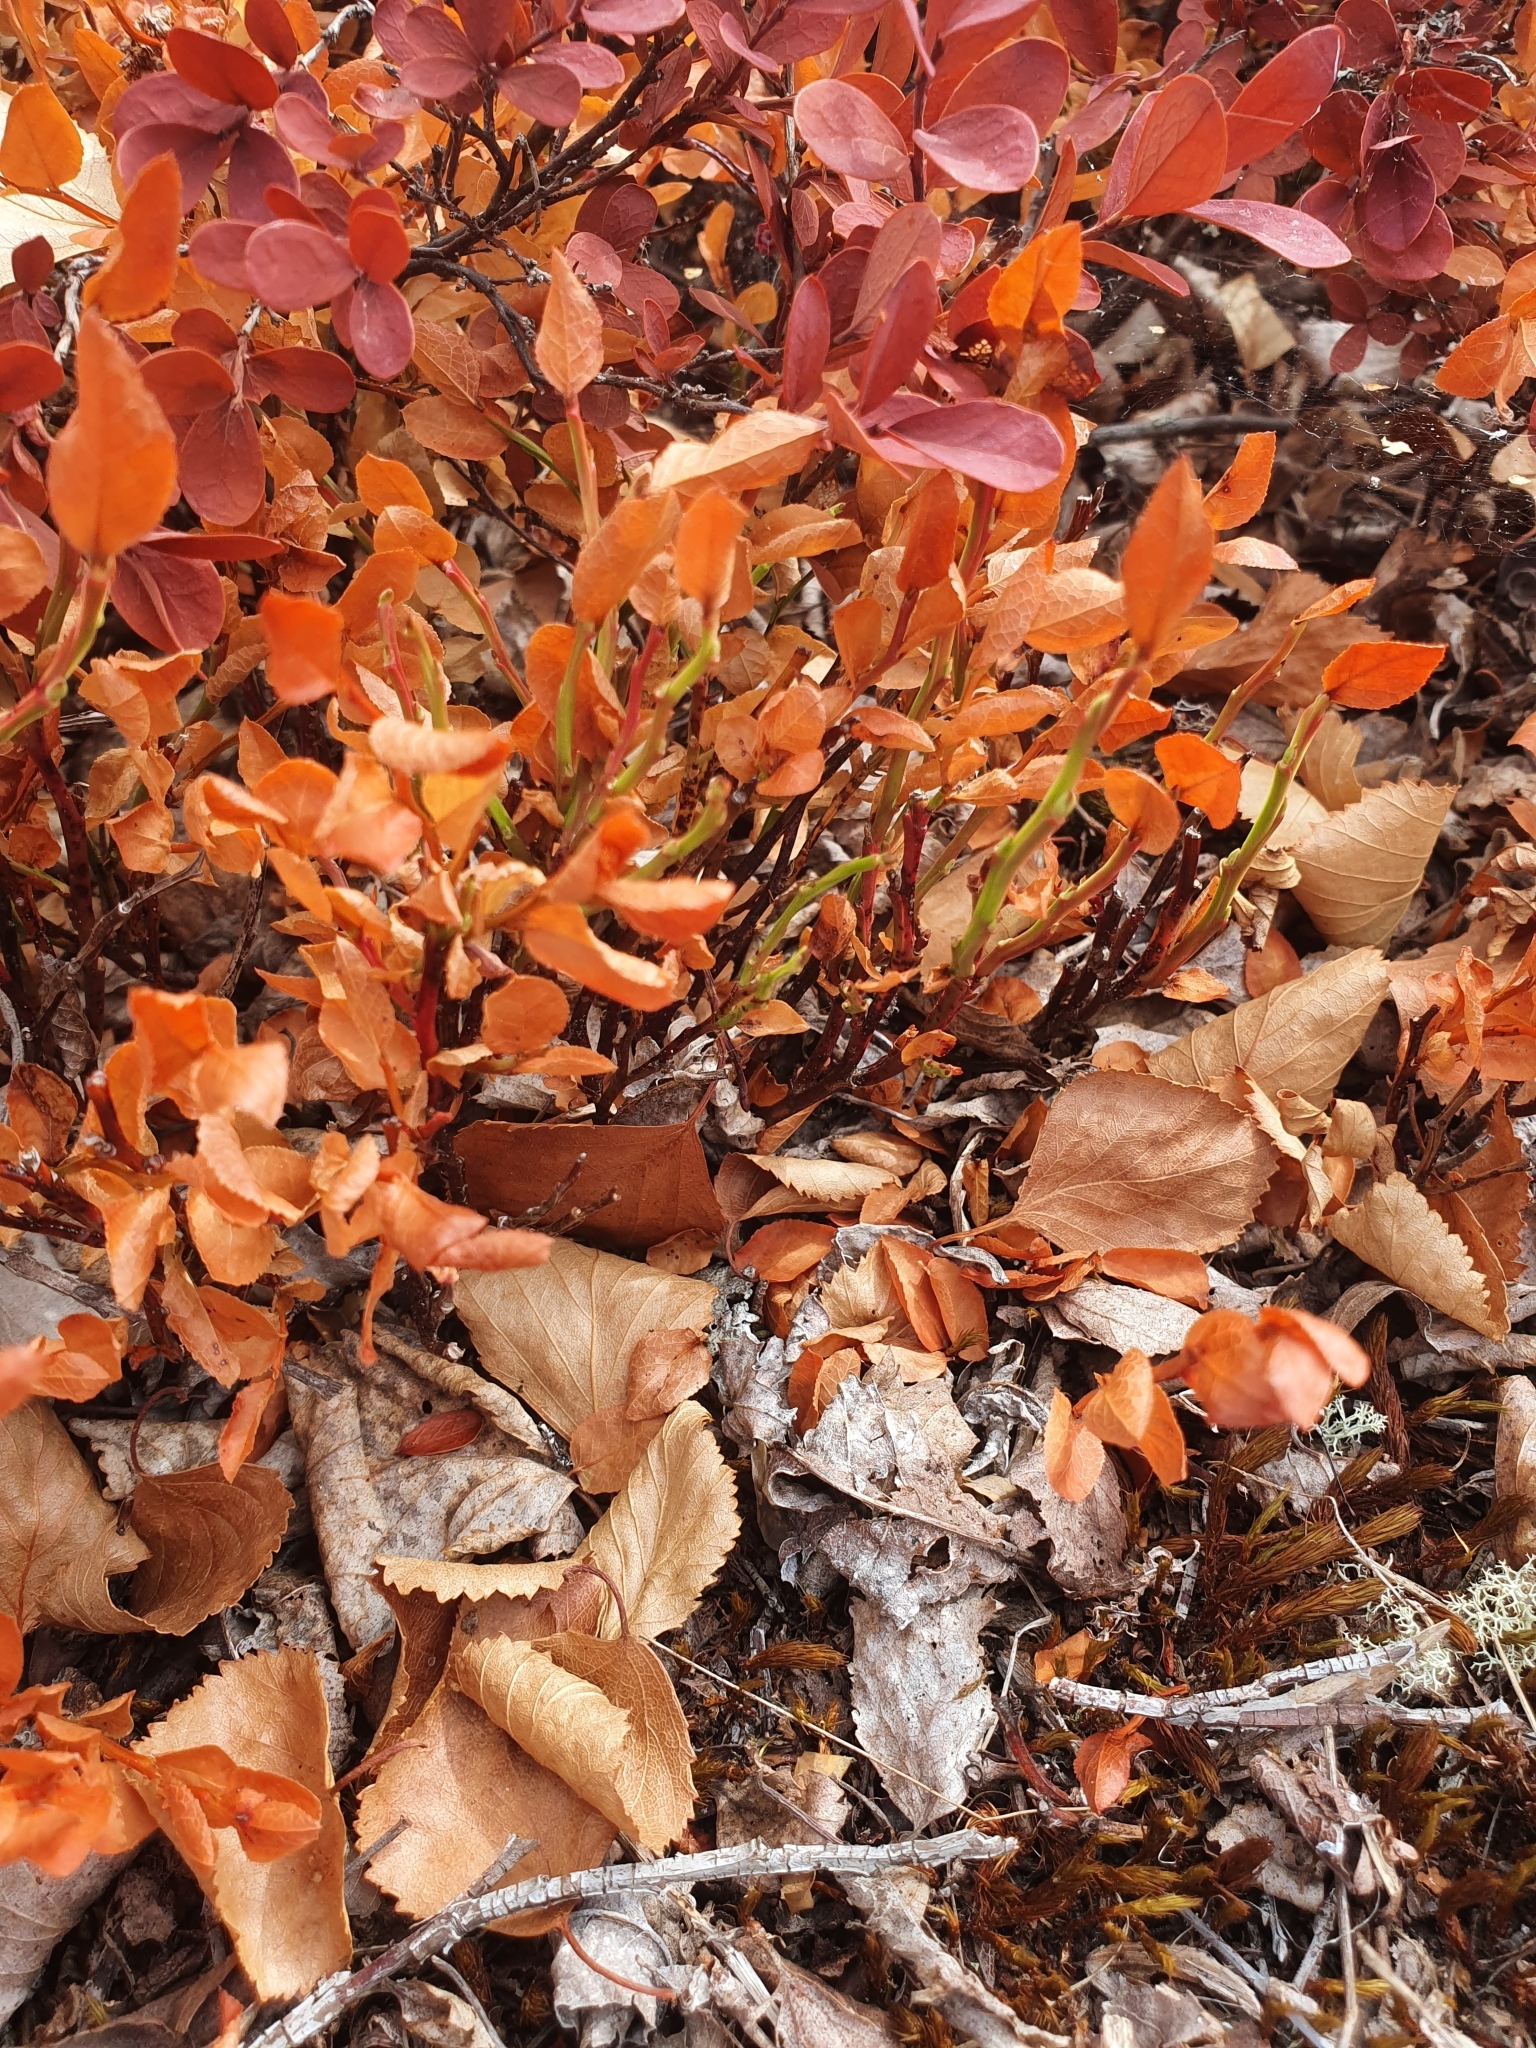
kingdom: Plantae
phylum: Tracheophyta
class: Magnoliopsida
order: Ericales
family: Ericaceae
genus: Vaccinium
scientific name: Vaccinium myrtillus
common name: Bilberry
